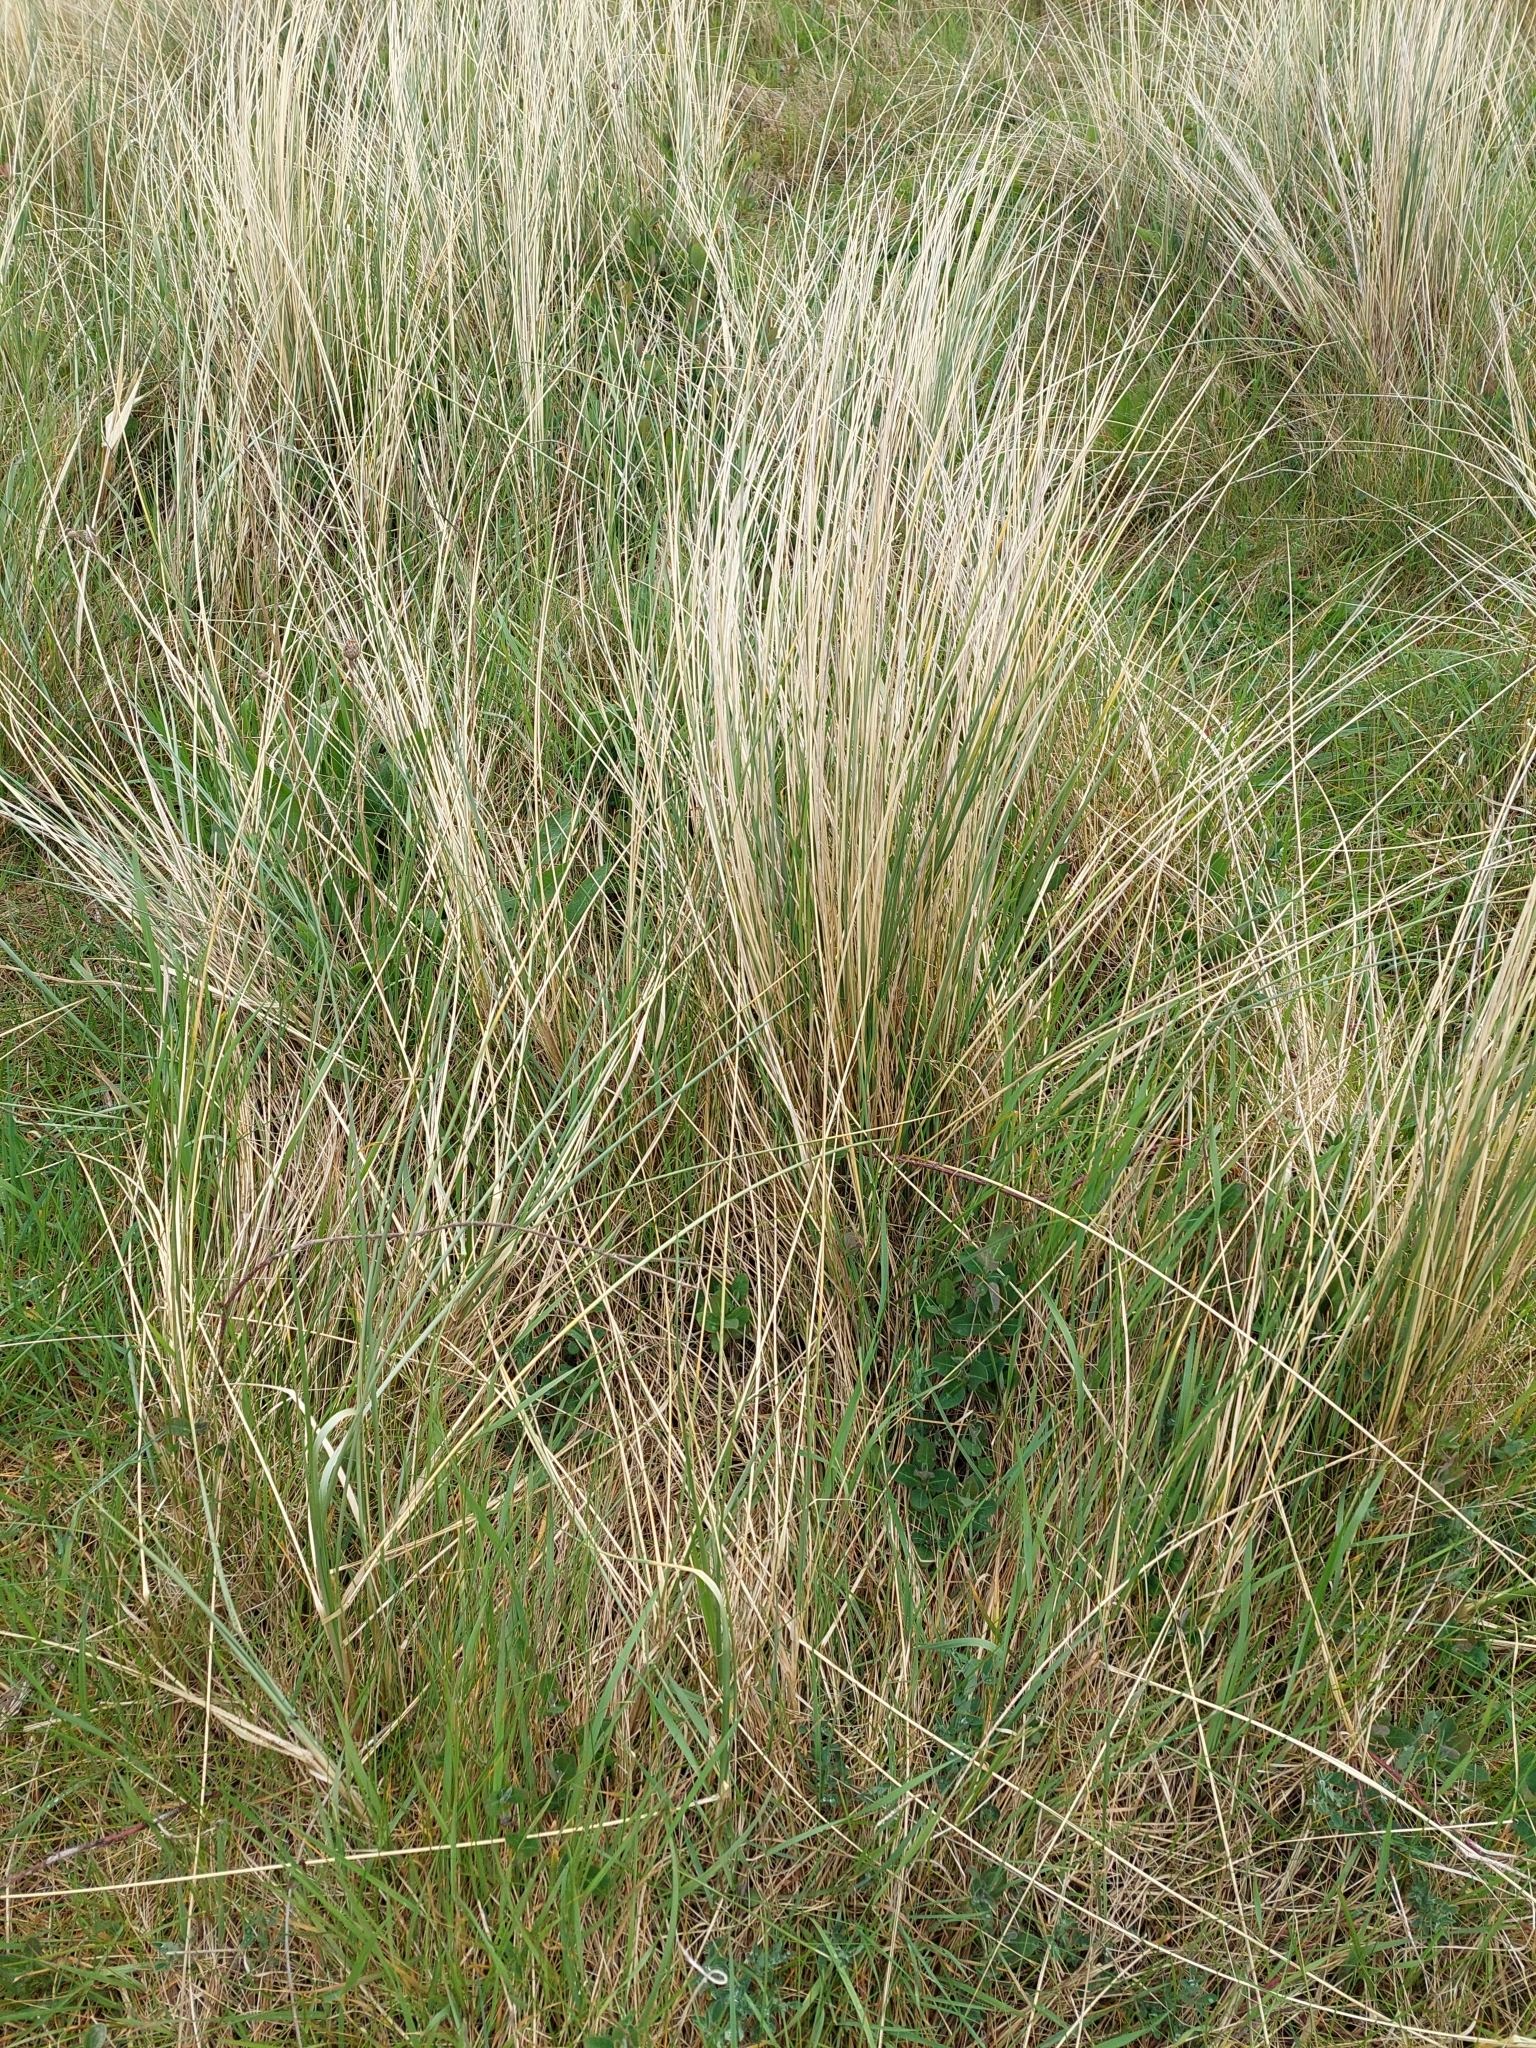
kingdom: Plantae
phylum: Tracheophyta
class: Liliopsida
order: Poales
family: Poaceae
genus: Calamagrostis
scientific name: Calamagrostis arenaria
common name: European beachgrass
